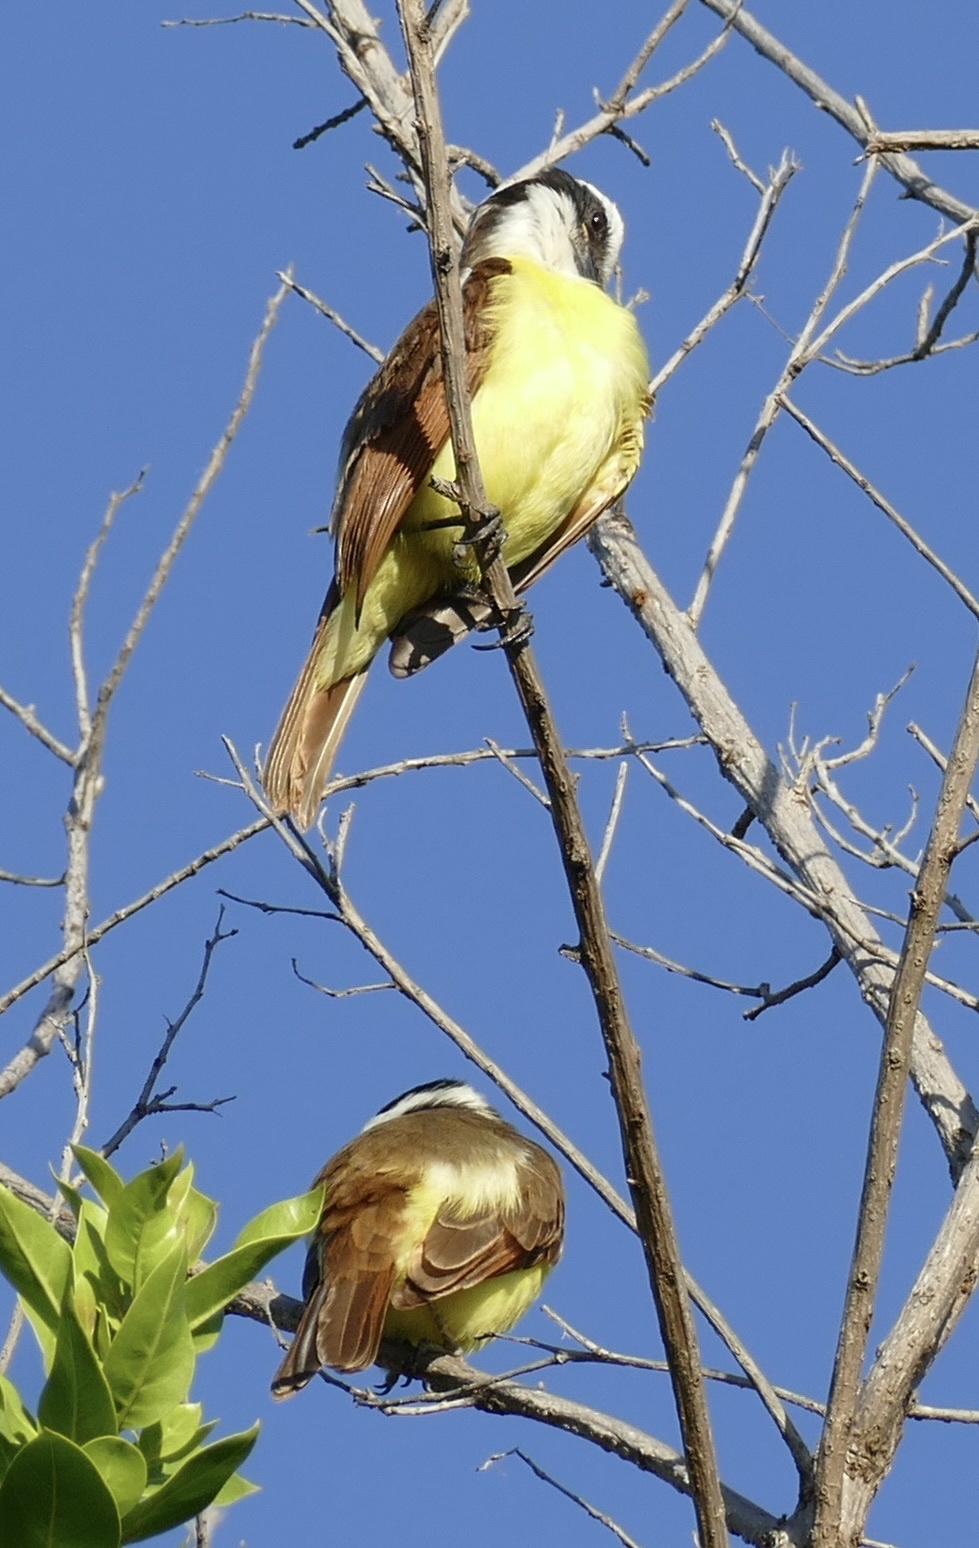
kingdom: Animalia
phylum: Chordata
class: Aves
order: Passeriformes
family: Tyrannidae
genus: Pitangus
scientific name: Pitangus sulphuratus
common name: Great kiskadee
